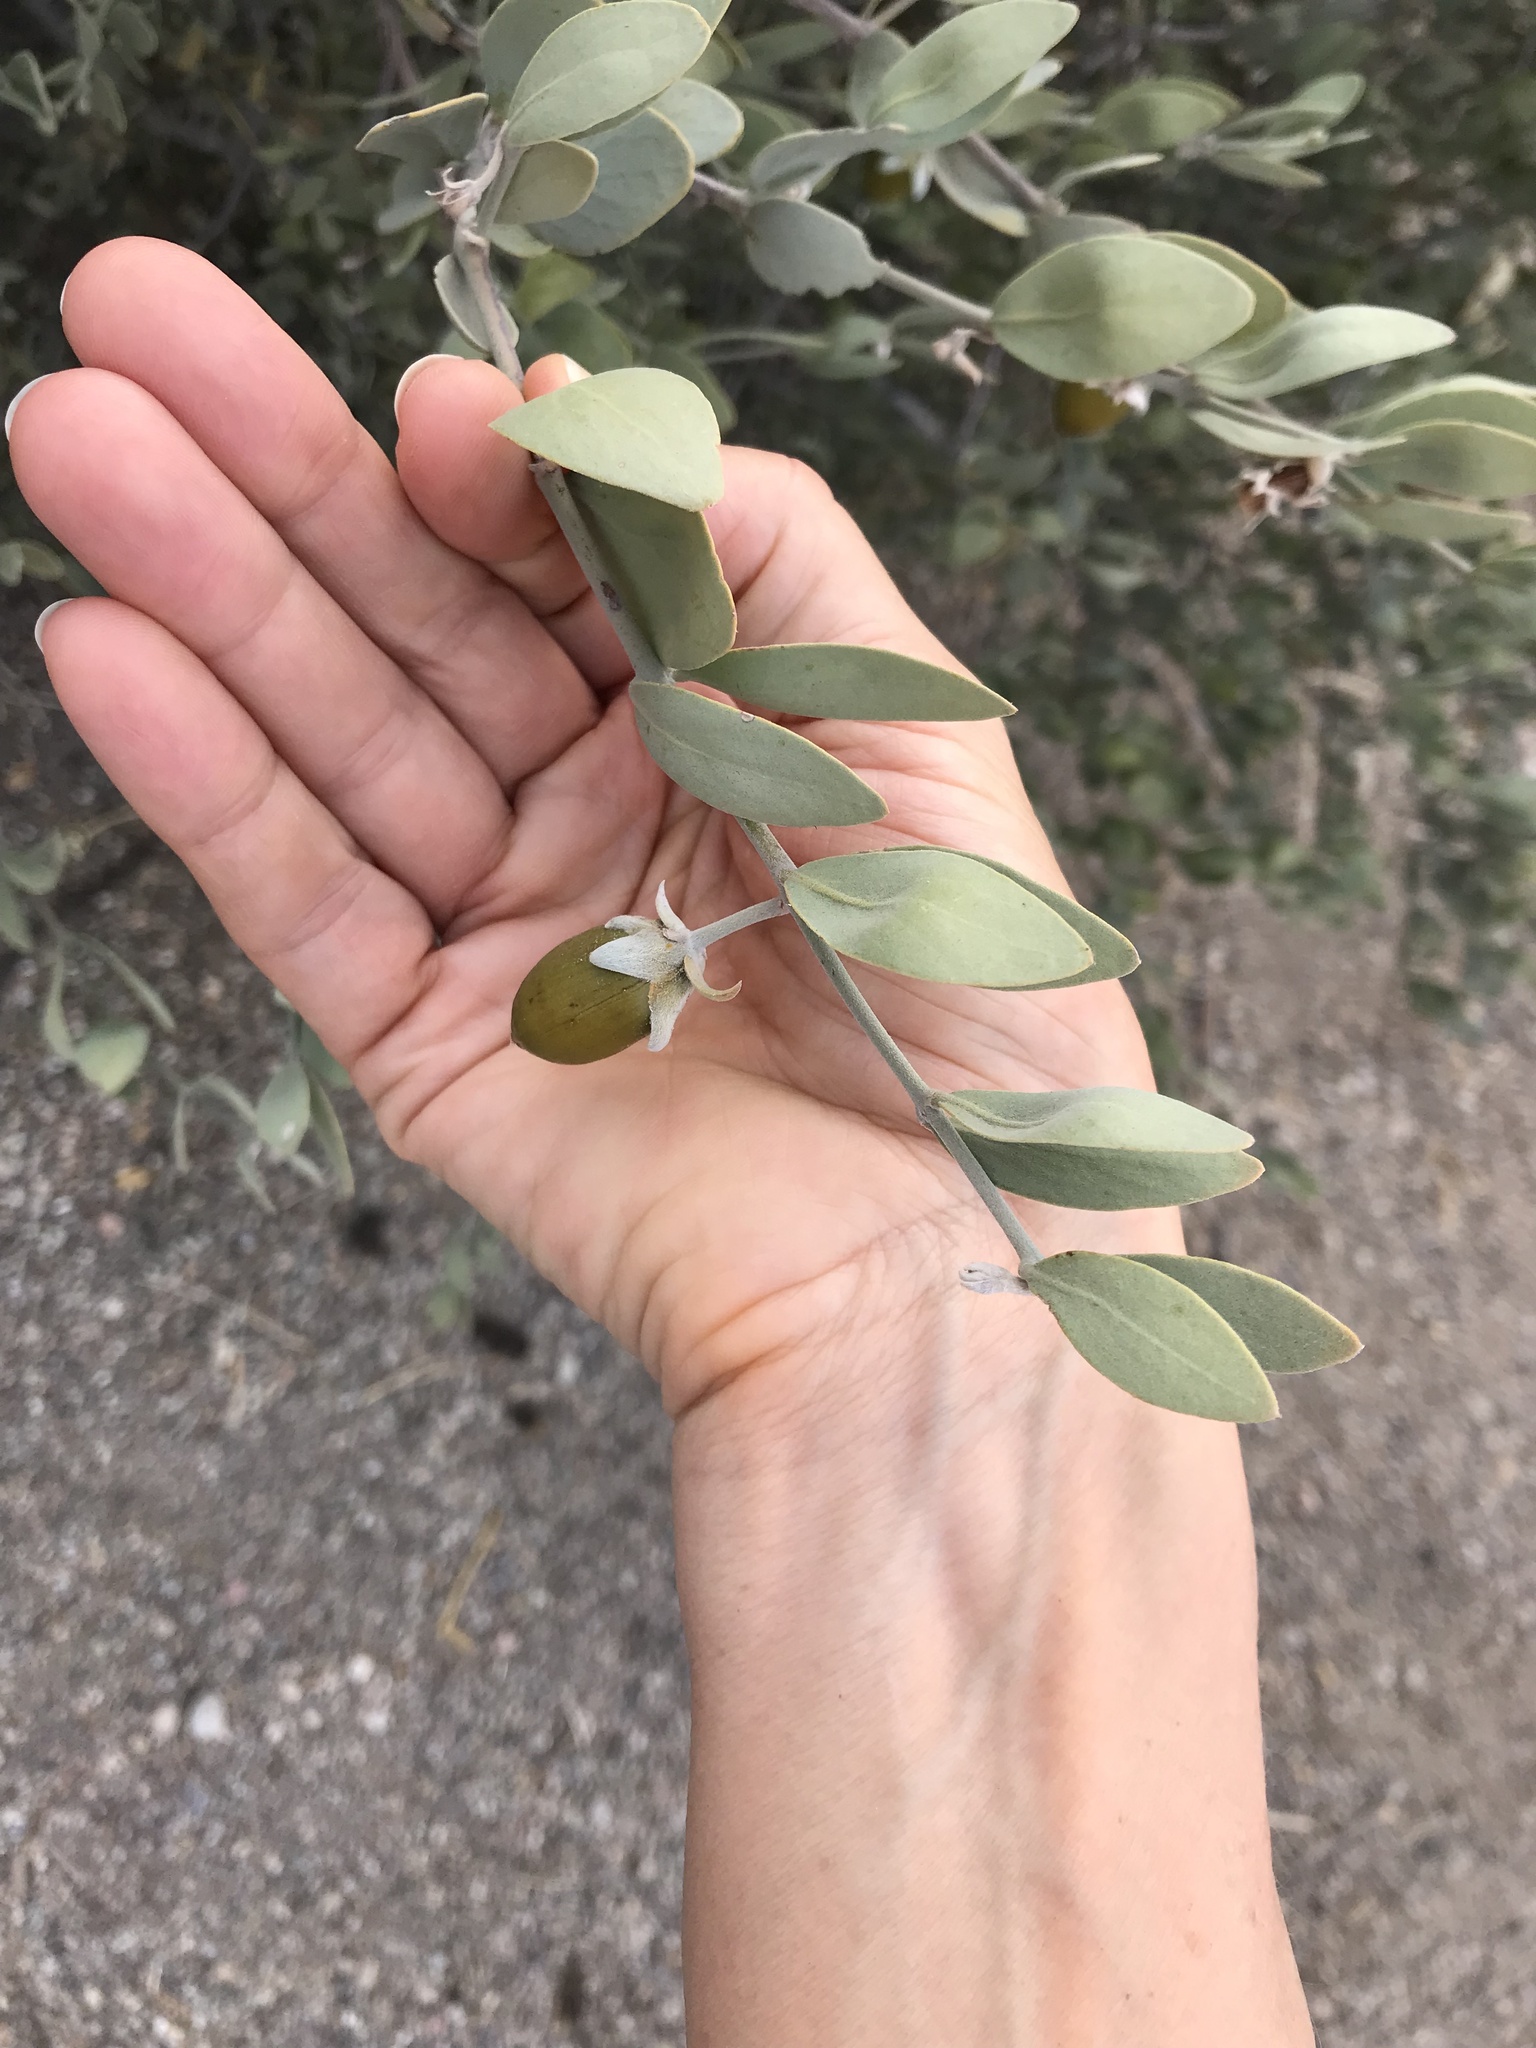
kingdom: Plantae
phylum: Tracheophyta
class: Magnoliopsida
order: Caryophyllales
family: Simmondsiaceae
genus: Simmondsia
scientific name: Simmondsia chinensis
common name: Jojoba
